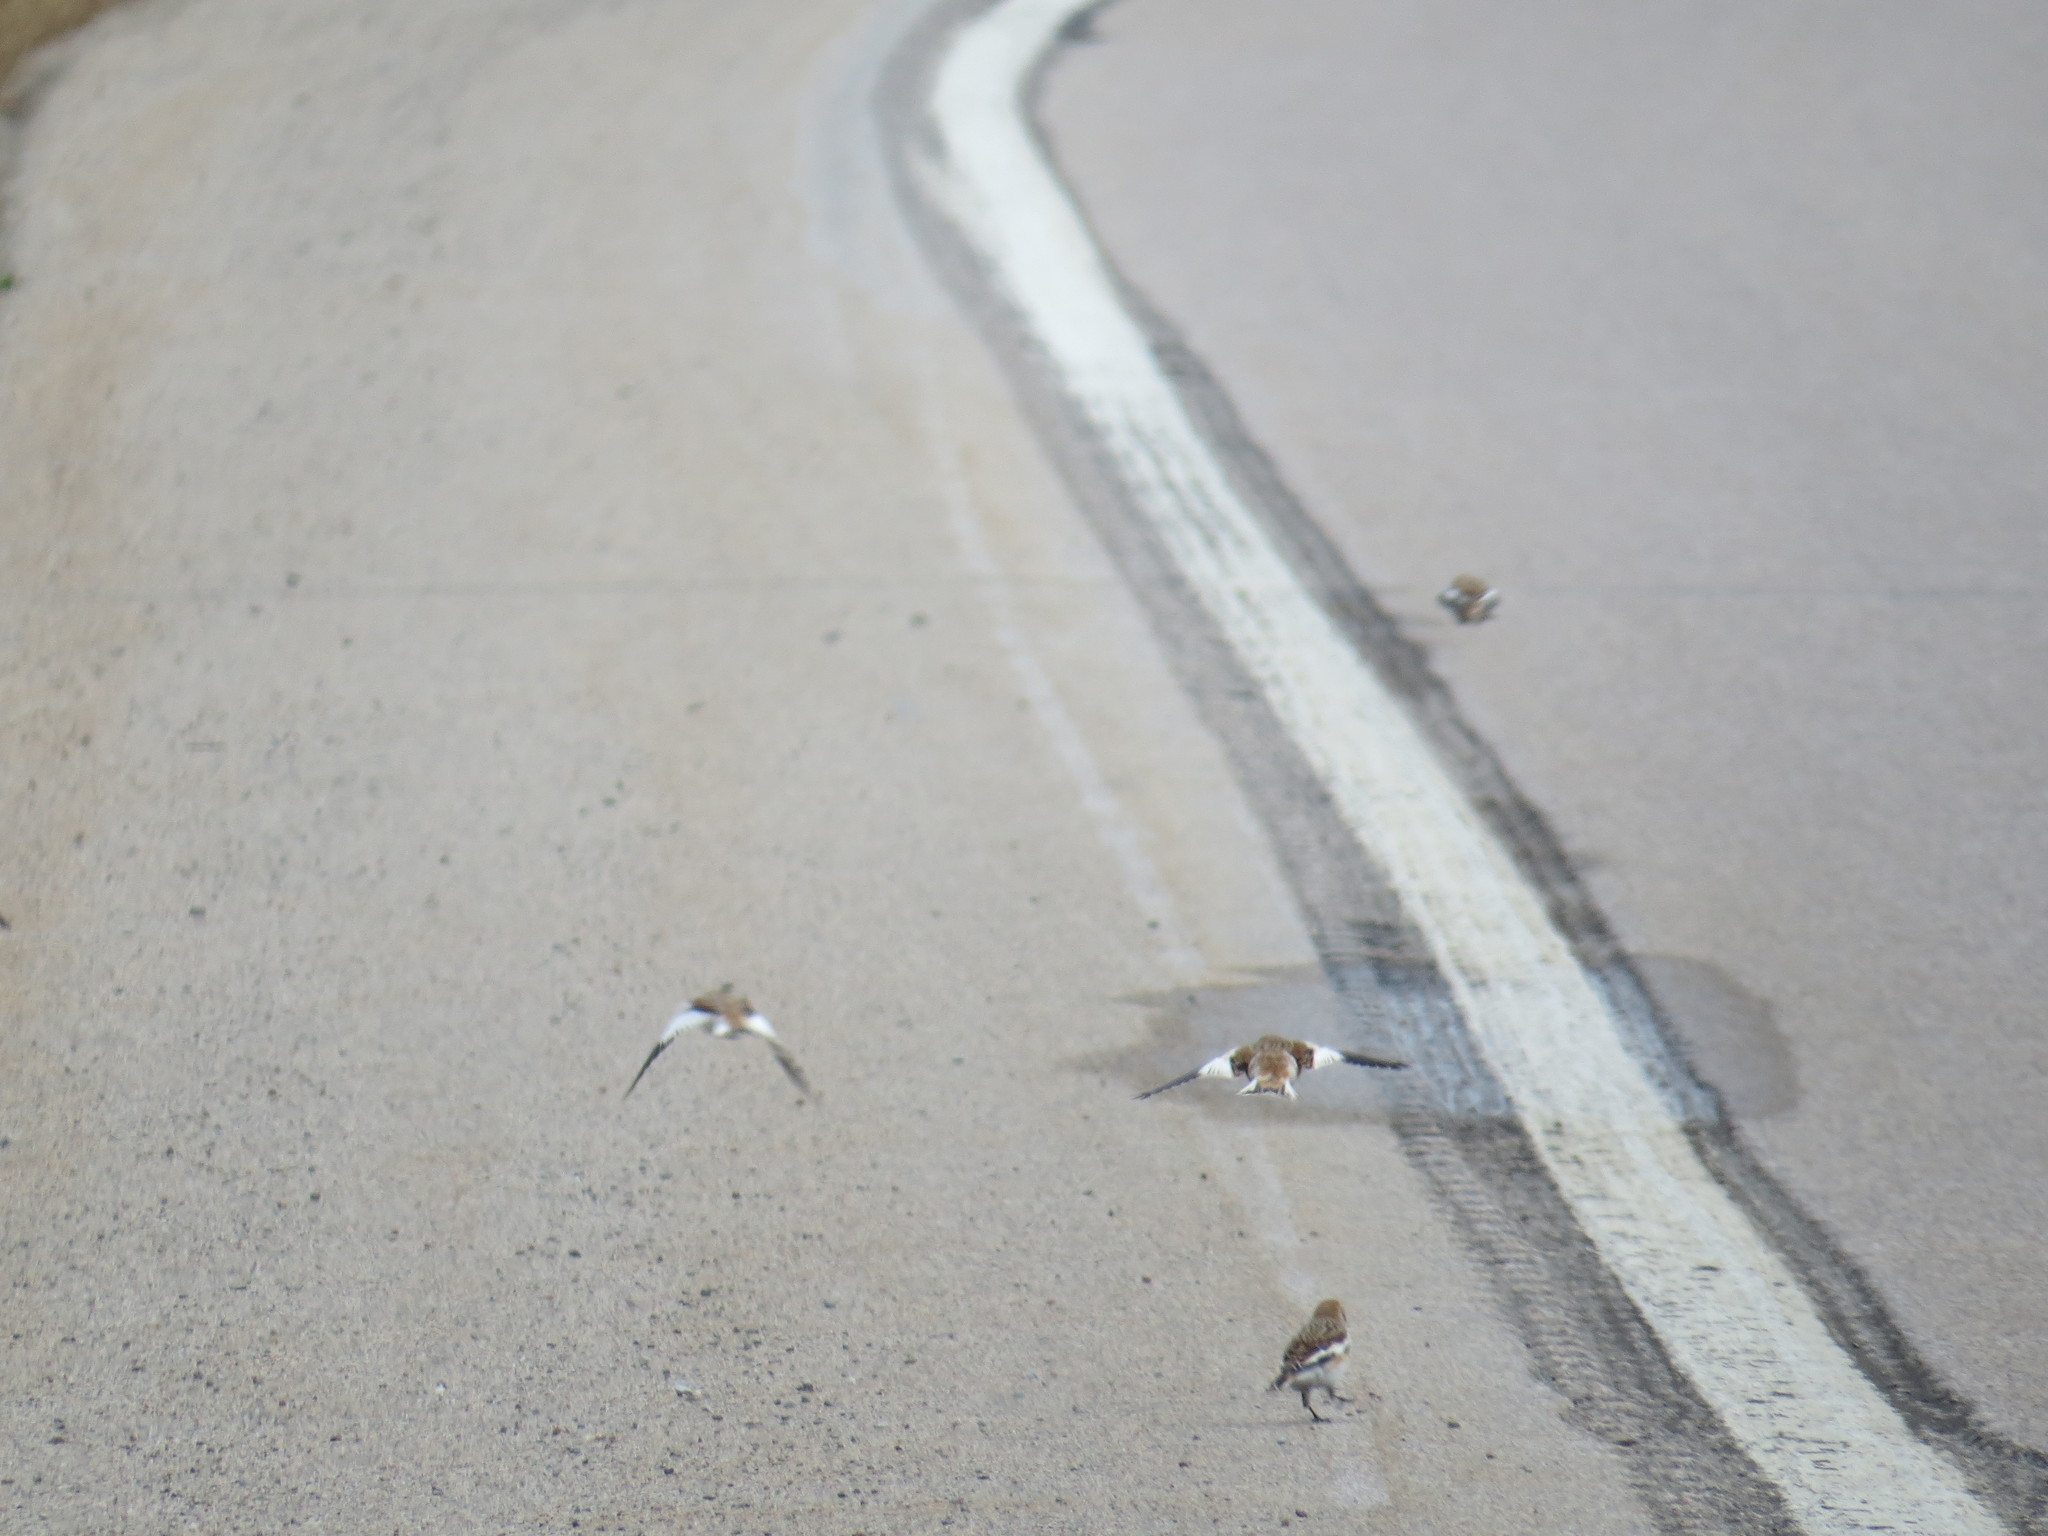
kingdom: Animalia
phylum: Chordata
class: Aves
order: Passeriformes
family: Calcariidae
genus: Plectrophenax
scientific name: Plectrophenax nivalis
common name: Snow bunting
